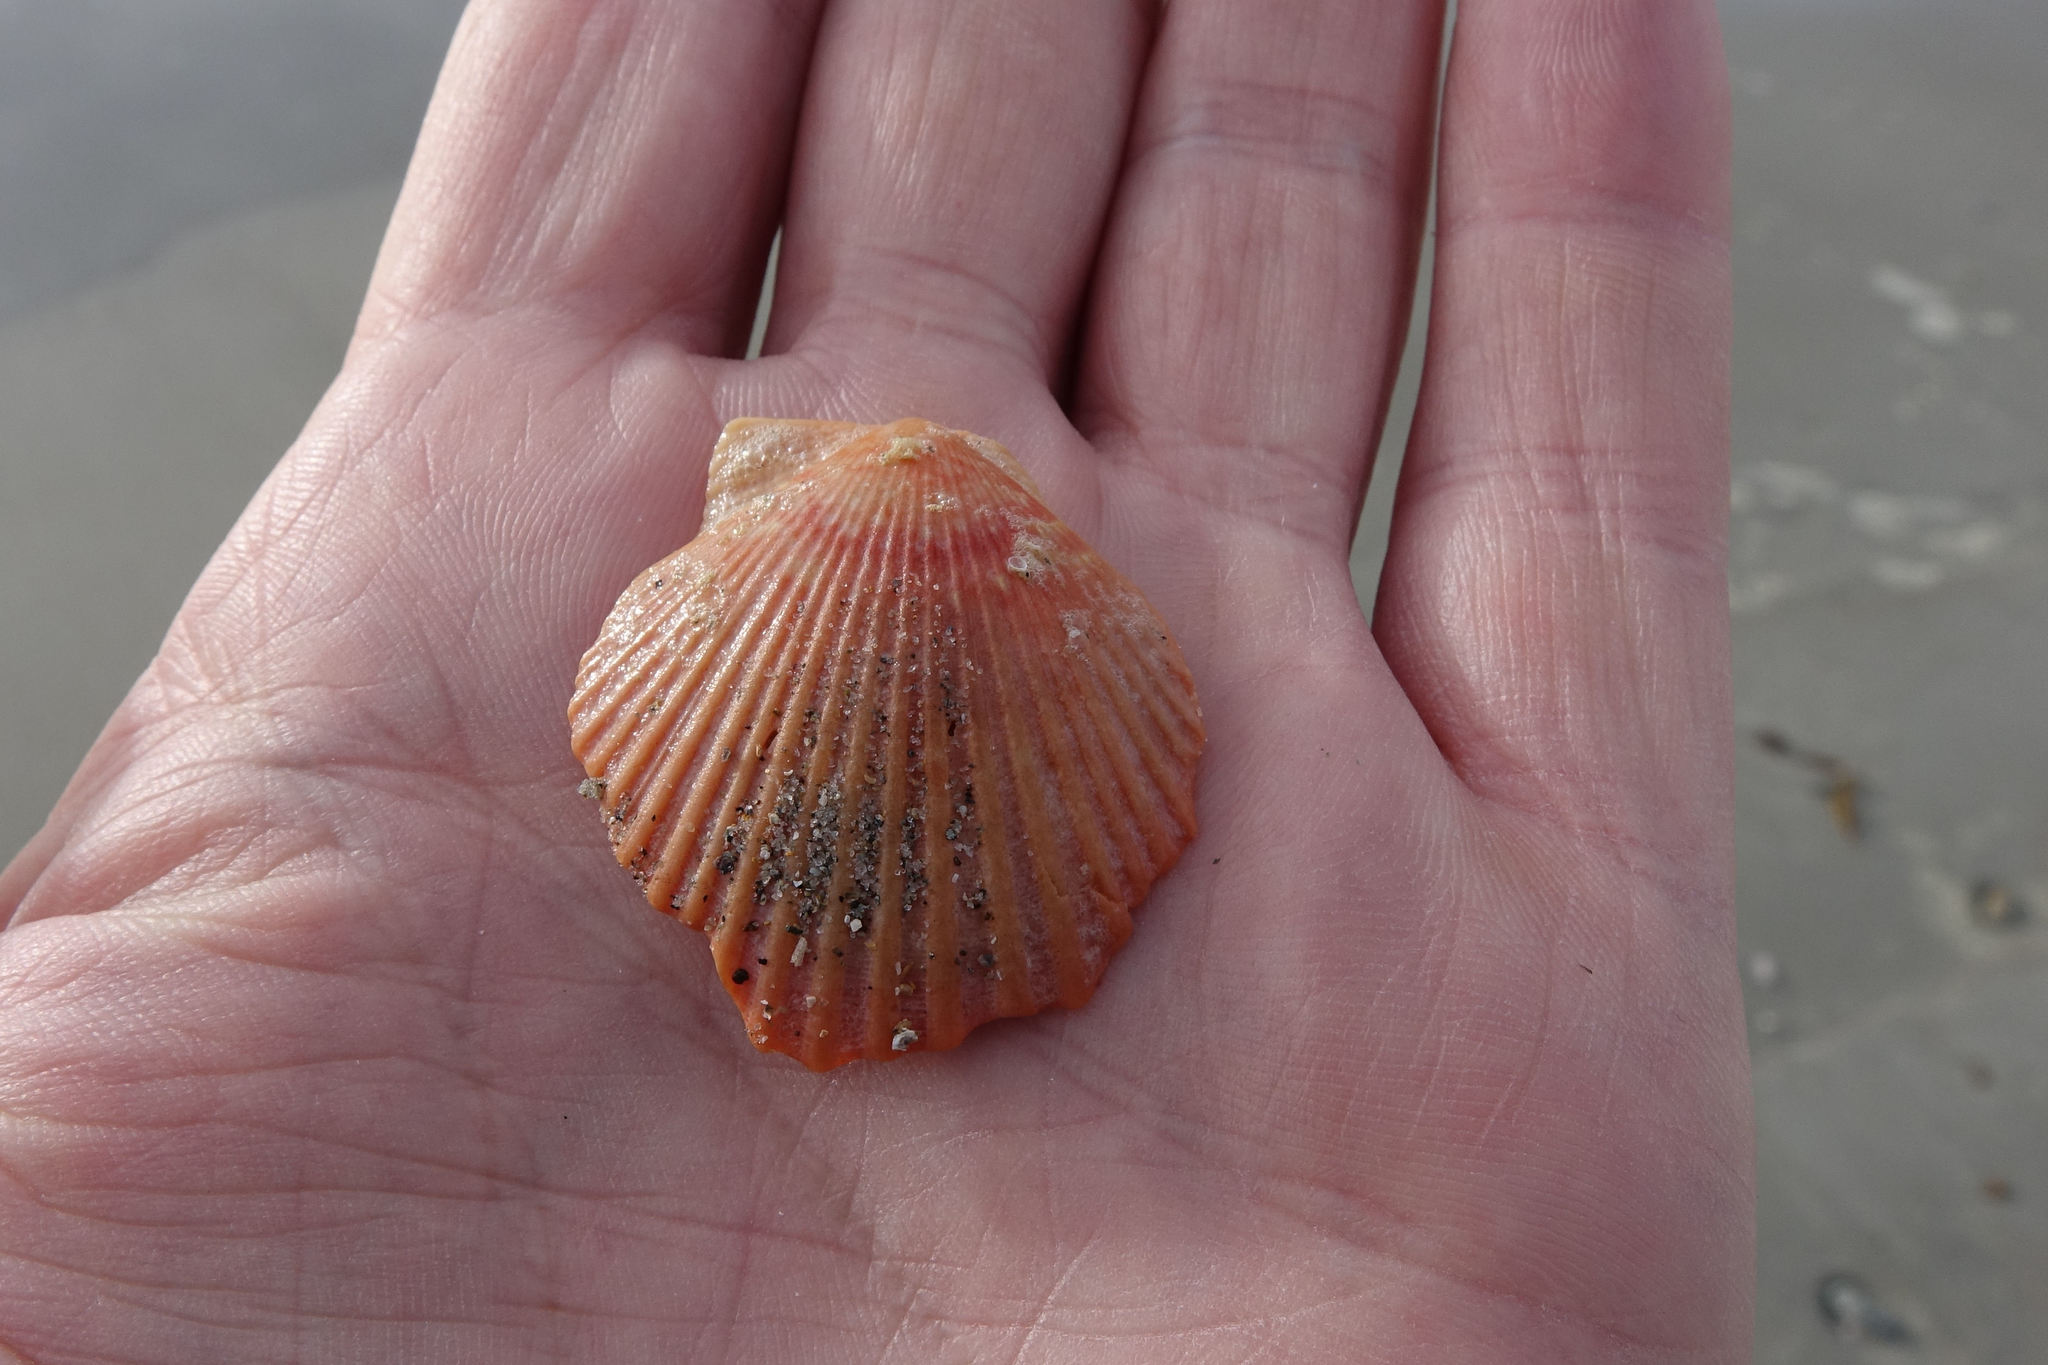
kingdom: Animalia
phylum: Mollusca
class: Bivalvia
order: Pectinida
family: Pectinidae
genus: Talochlamys
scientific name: Talochlamys zelandiae
